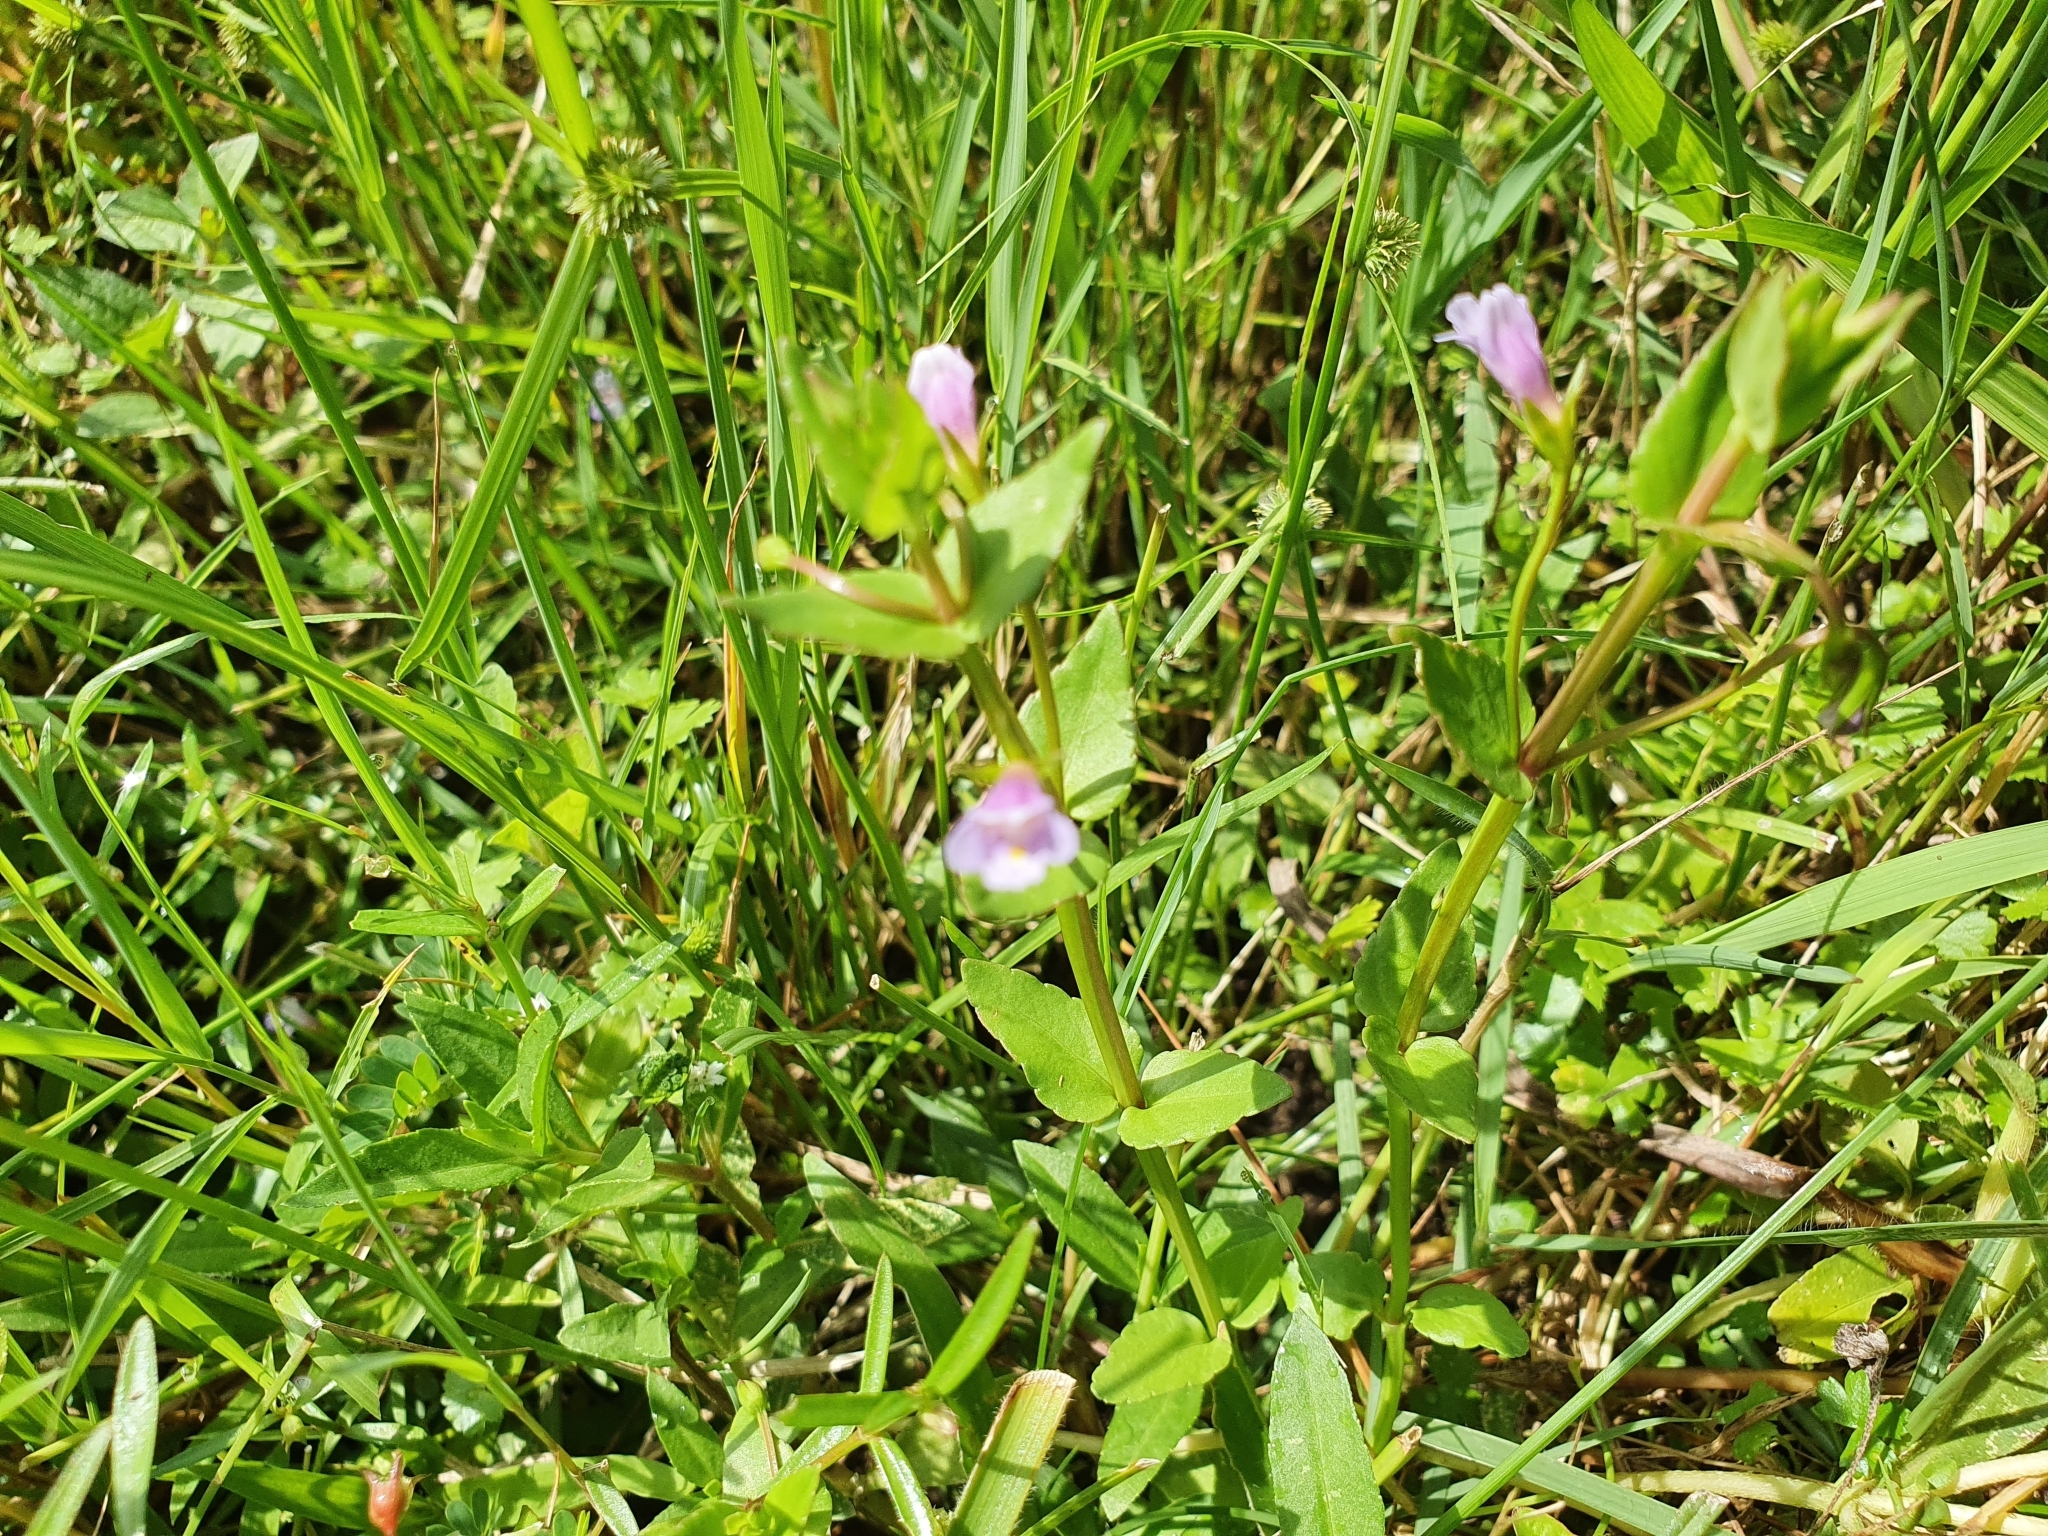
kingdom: Plantae
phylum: Tracheophyta
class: Magnoliopsida
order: Lamiales
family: Linderniaceae
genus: Torenia
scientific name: Torenia anagallis
